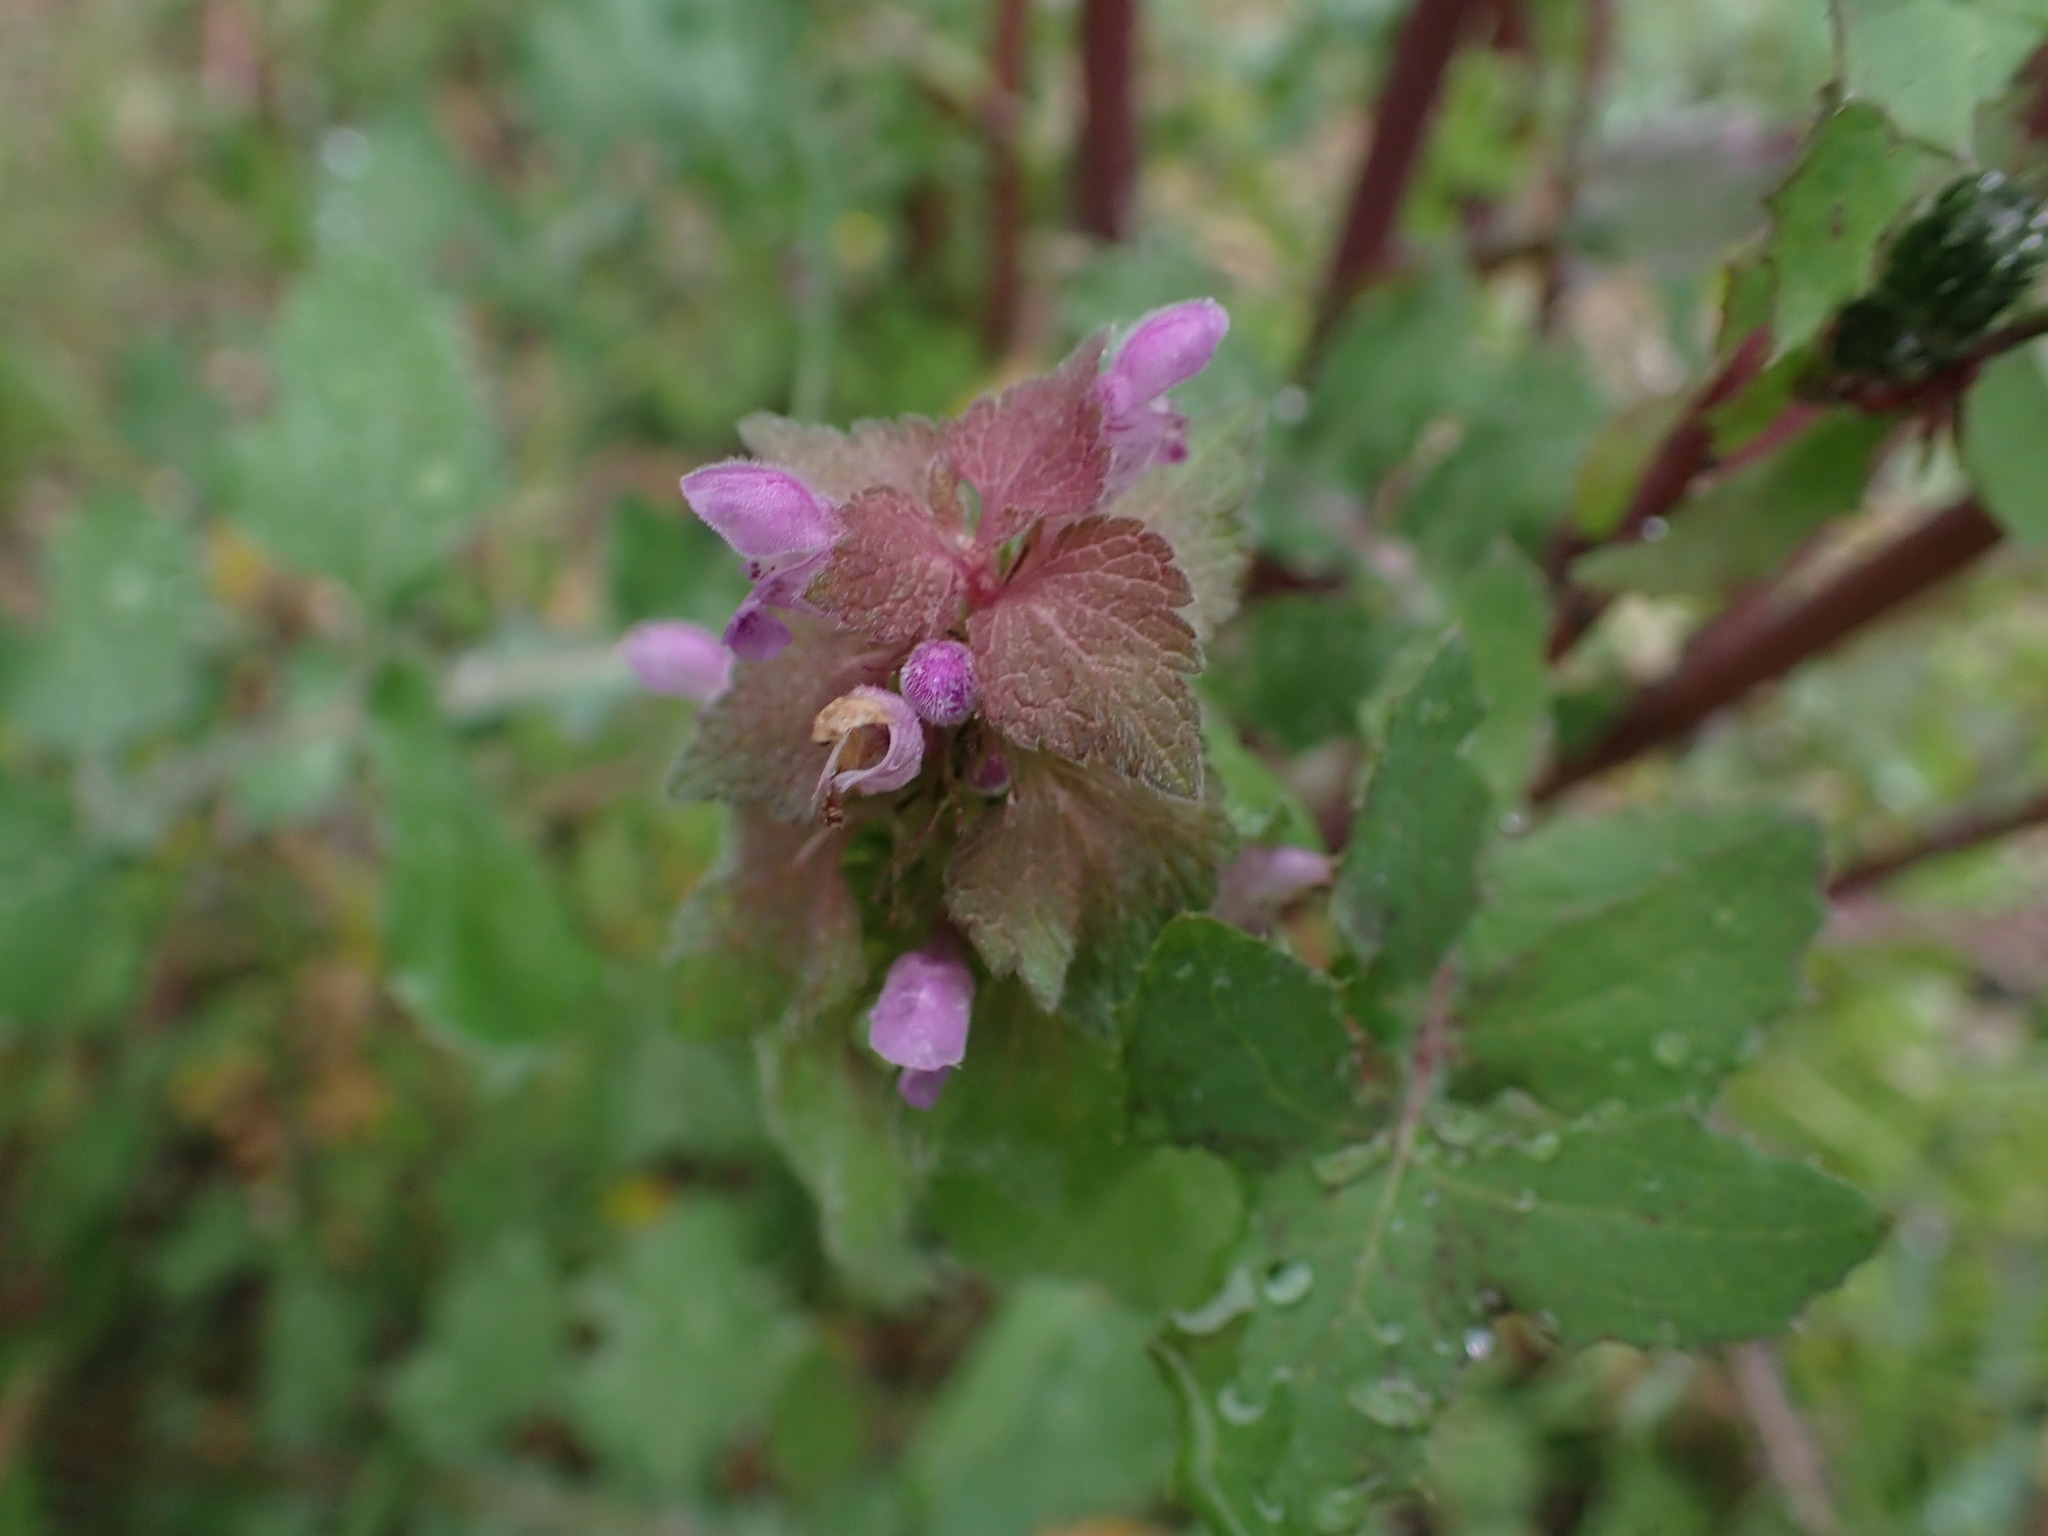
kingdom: Plantae
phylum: Tracheophyta
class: Magnoliopsida
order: Lamiales
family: Lamiaceae
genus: Lamium
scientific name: Lamium purpureum
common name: Red dead-nettle
